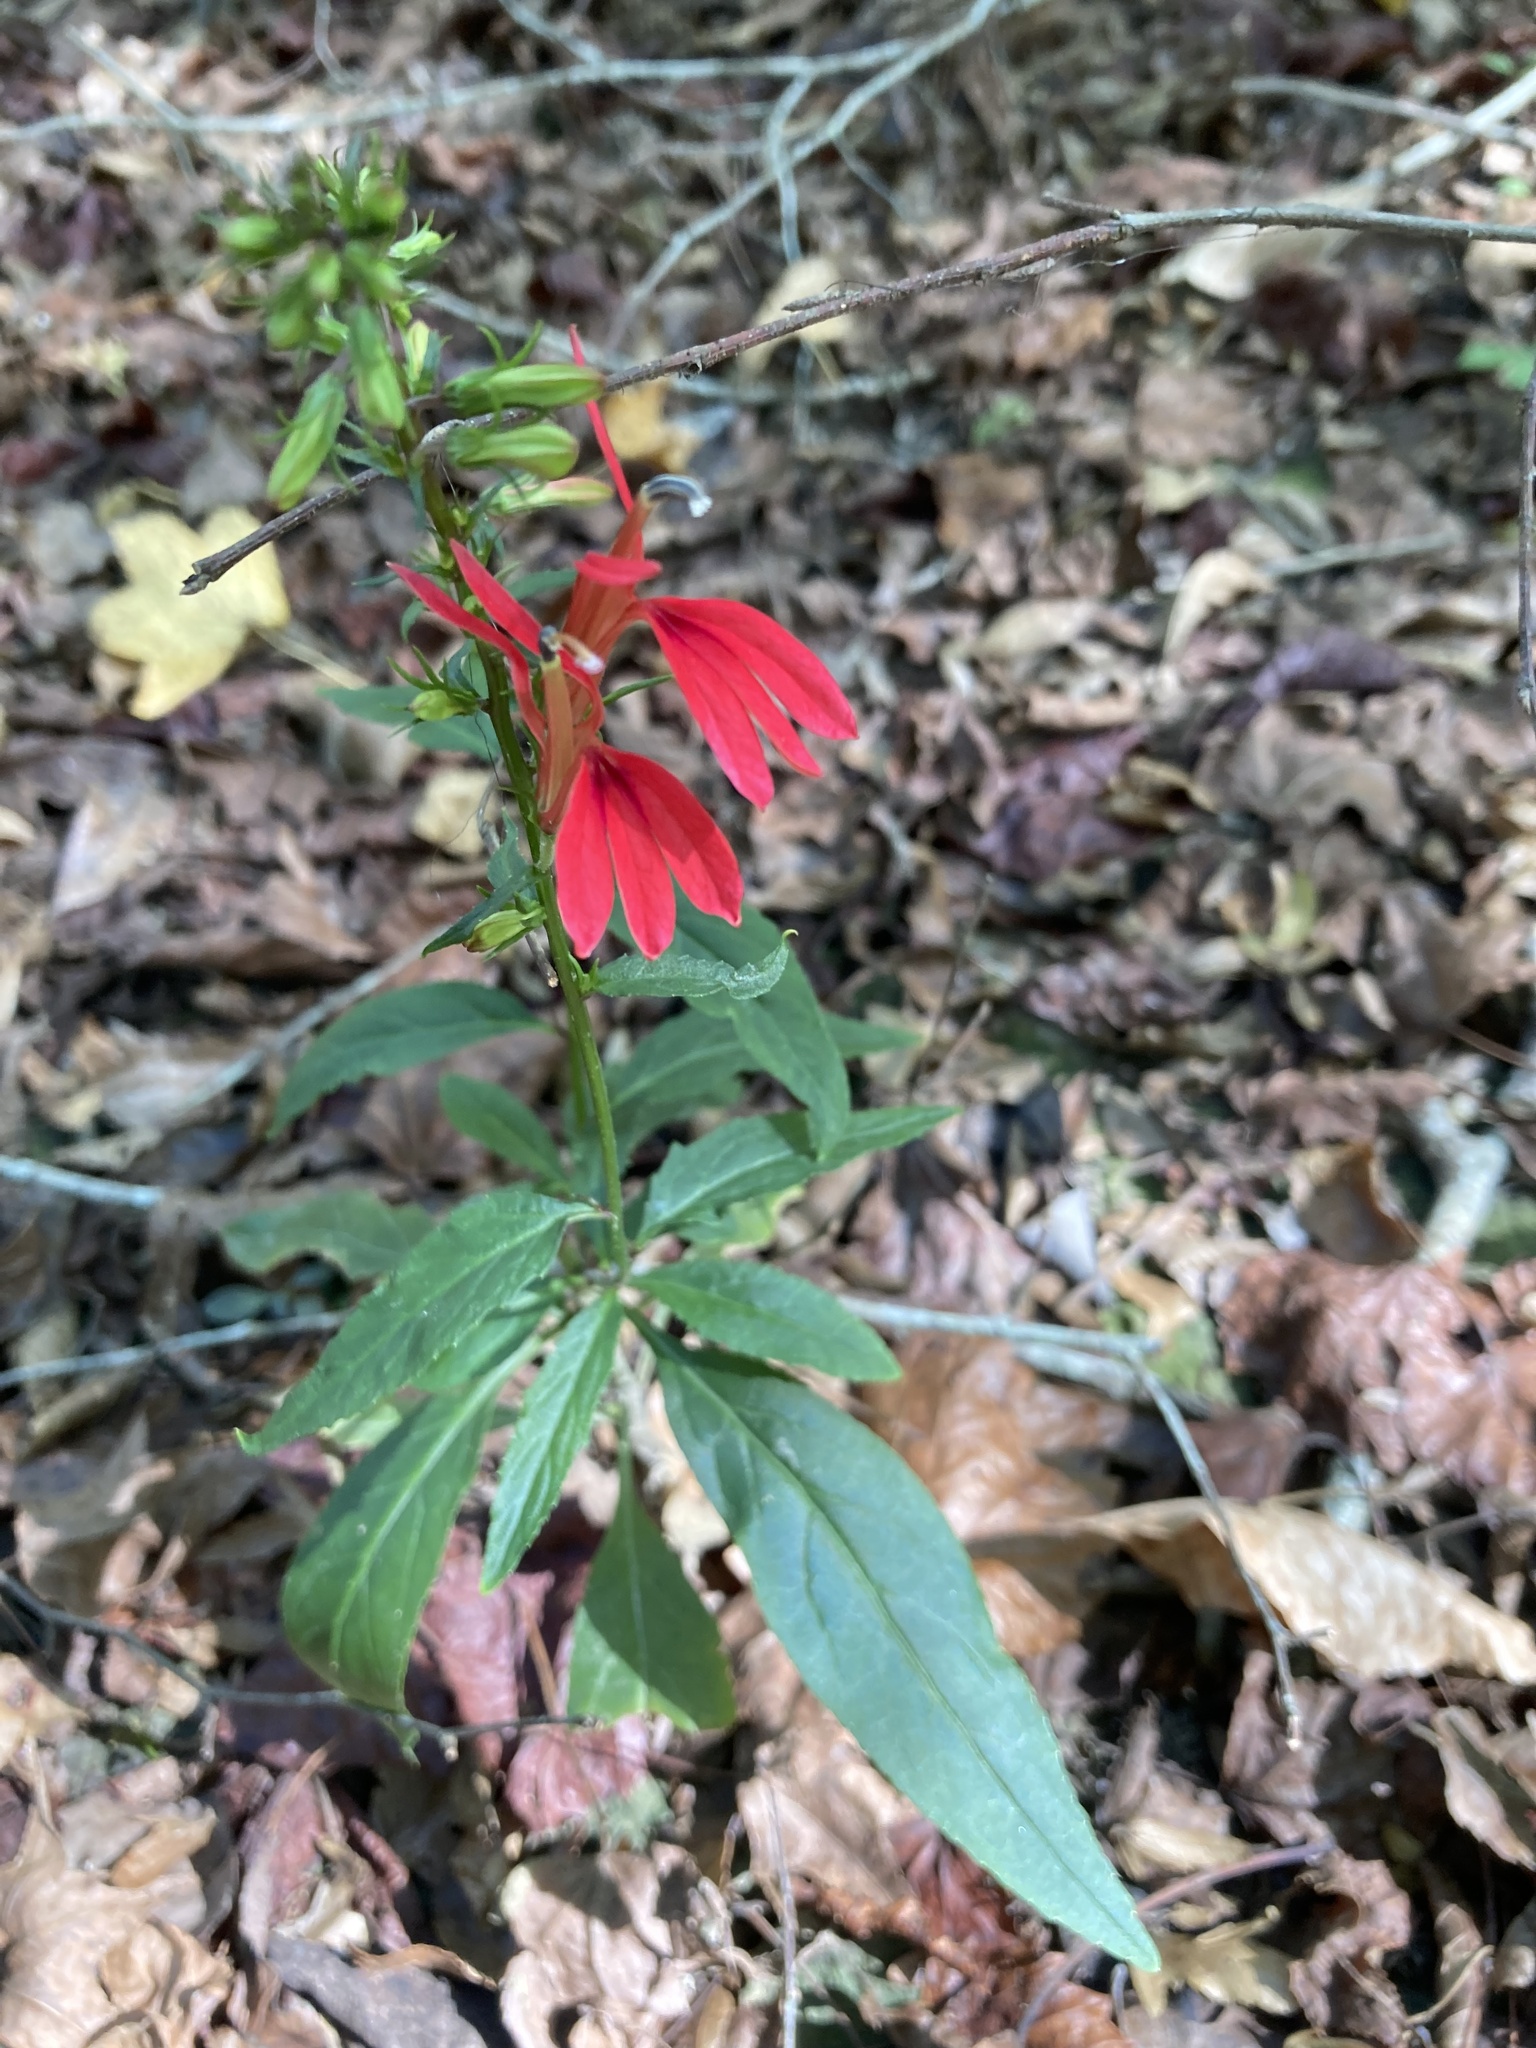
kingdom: Plantae
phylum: Tracheophyta
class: Magnoliopsida
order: Asterales
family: Campanulaceae
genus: Lobelia
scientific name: Lobelia cardinalis
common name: Cardinal flower
